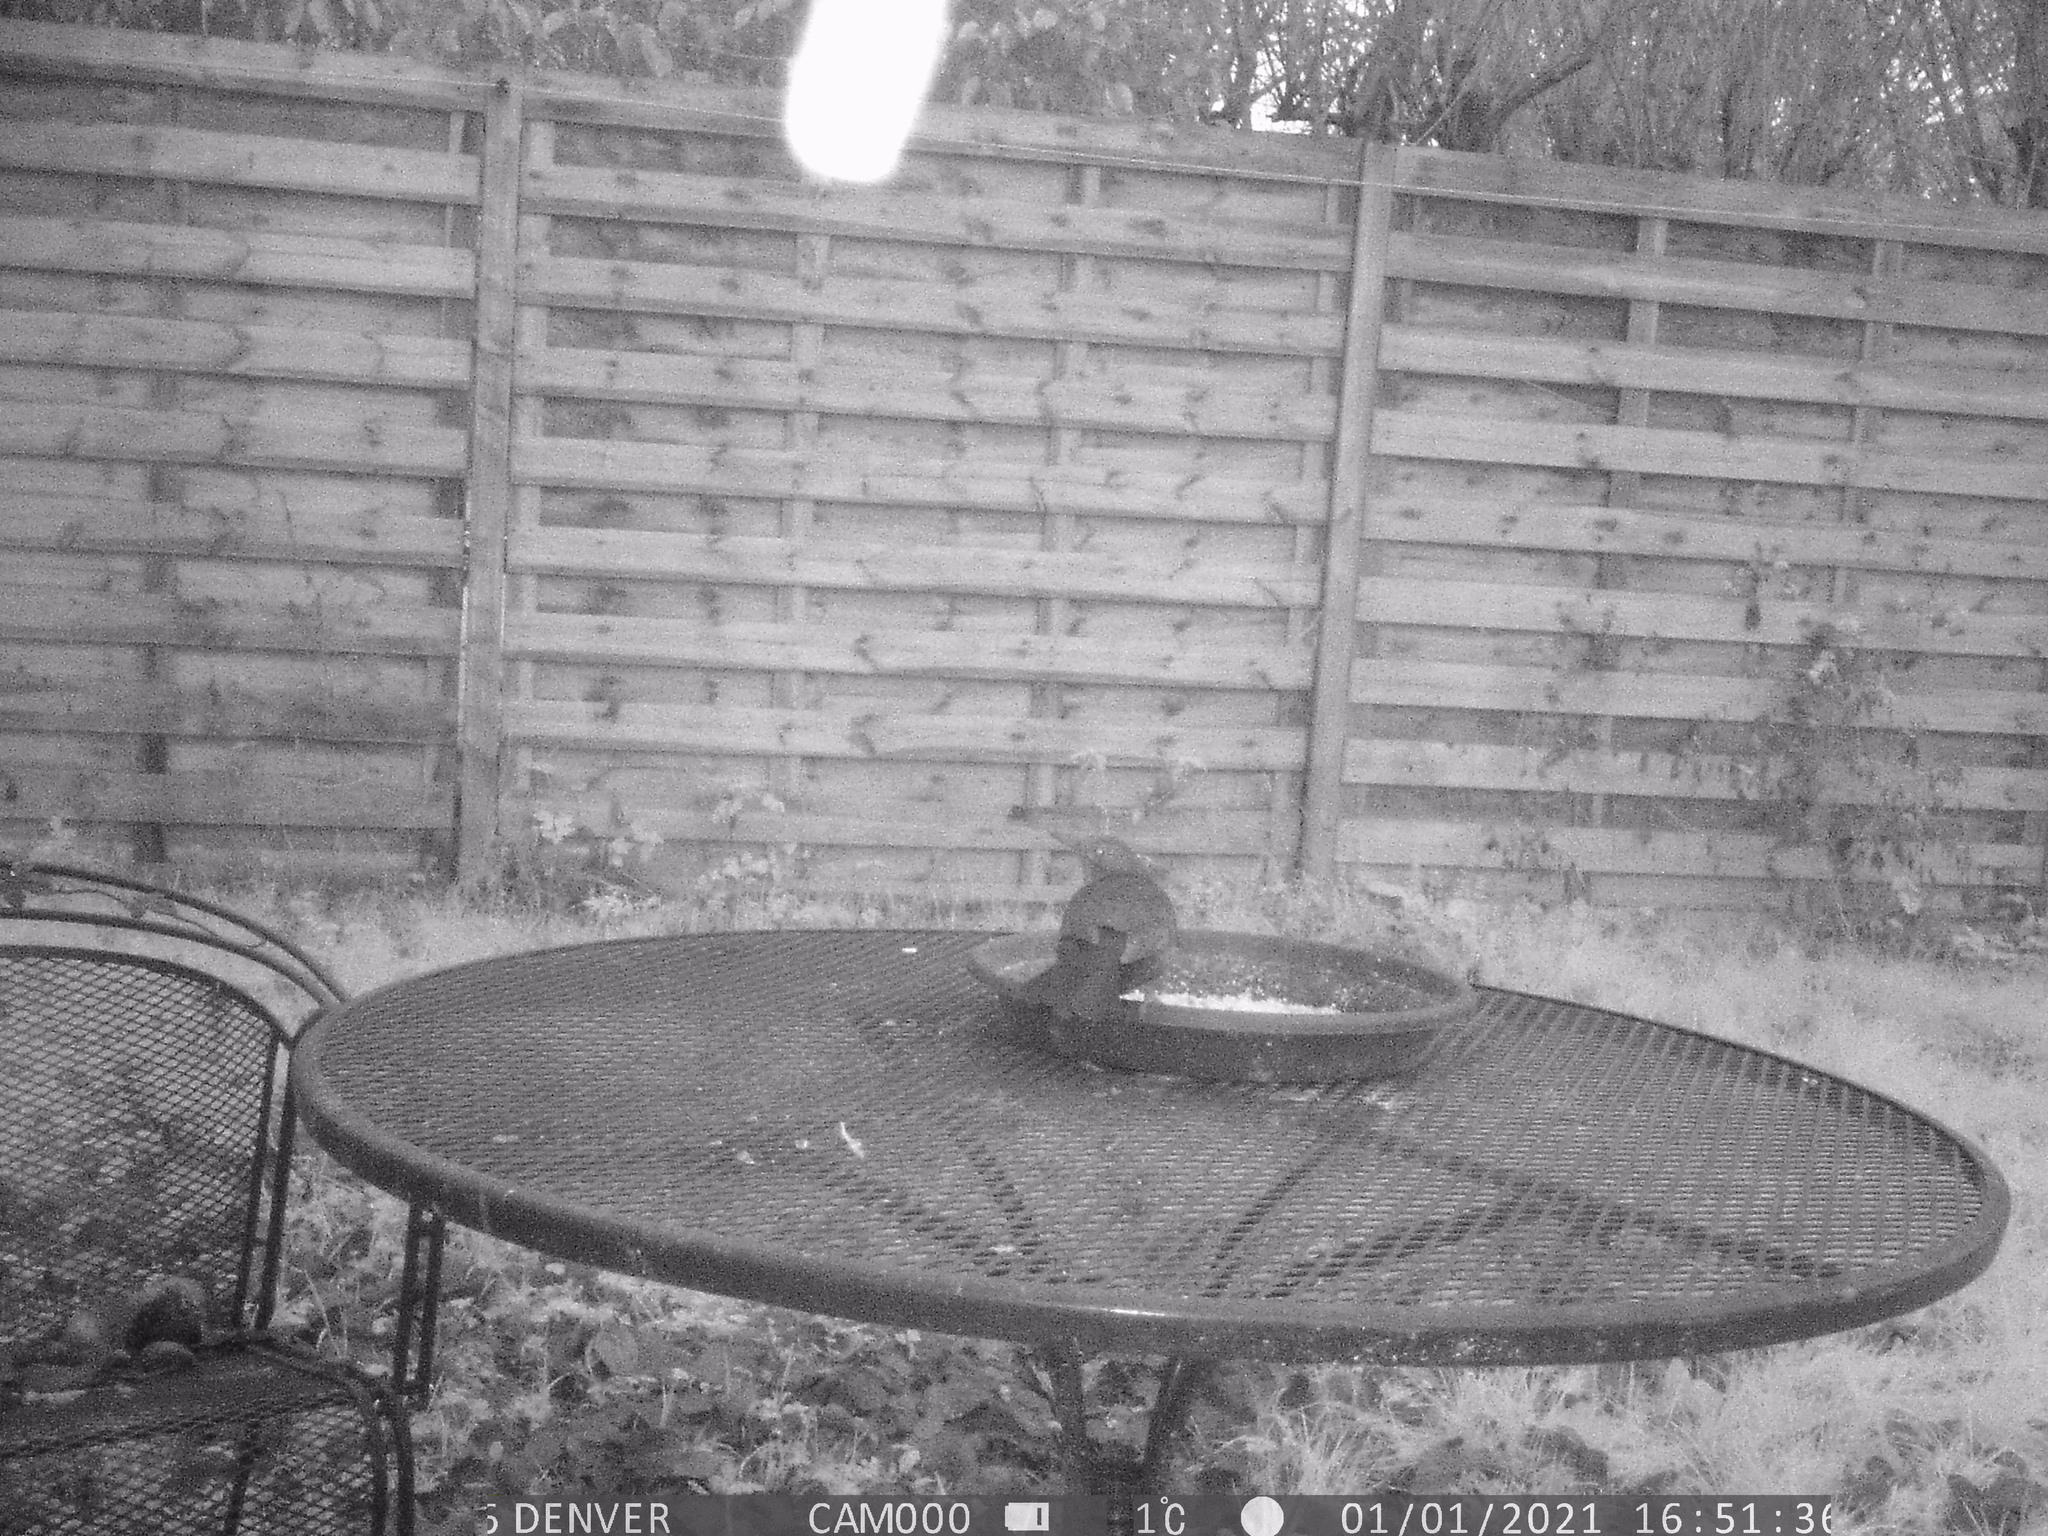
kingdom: Animalia
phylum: Chordata
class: Aves
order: Passeriformes
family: Turdidae
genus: Turdus
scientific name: Turdus merula
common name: Common blackbird
